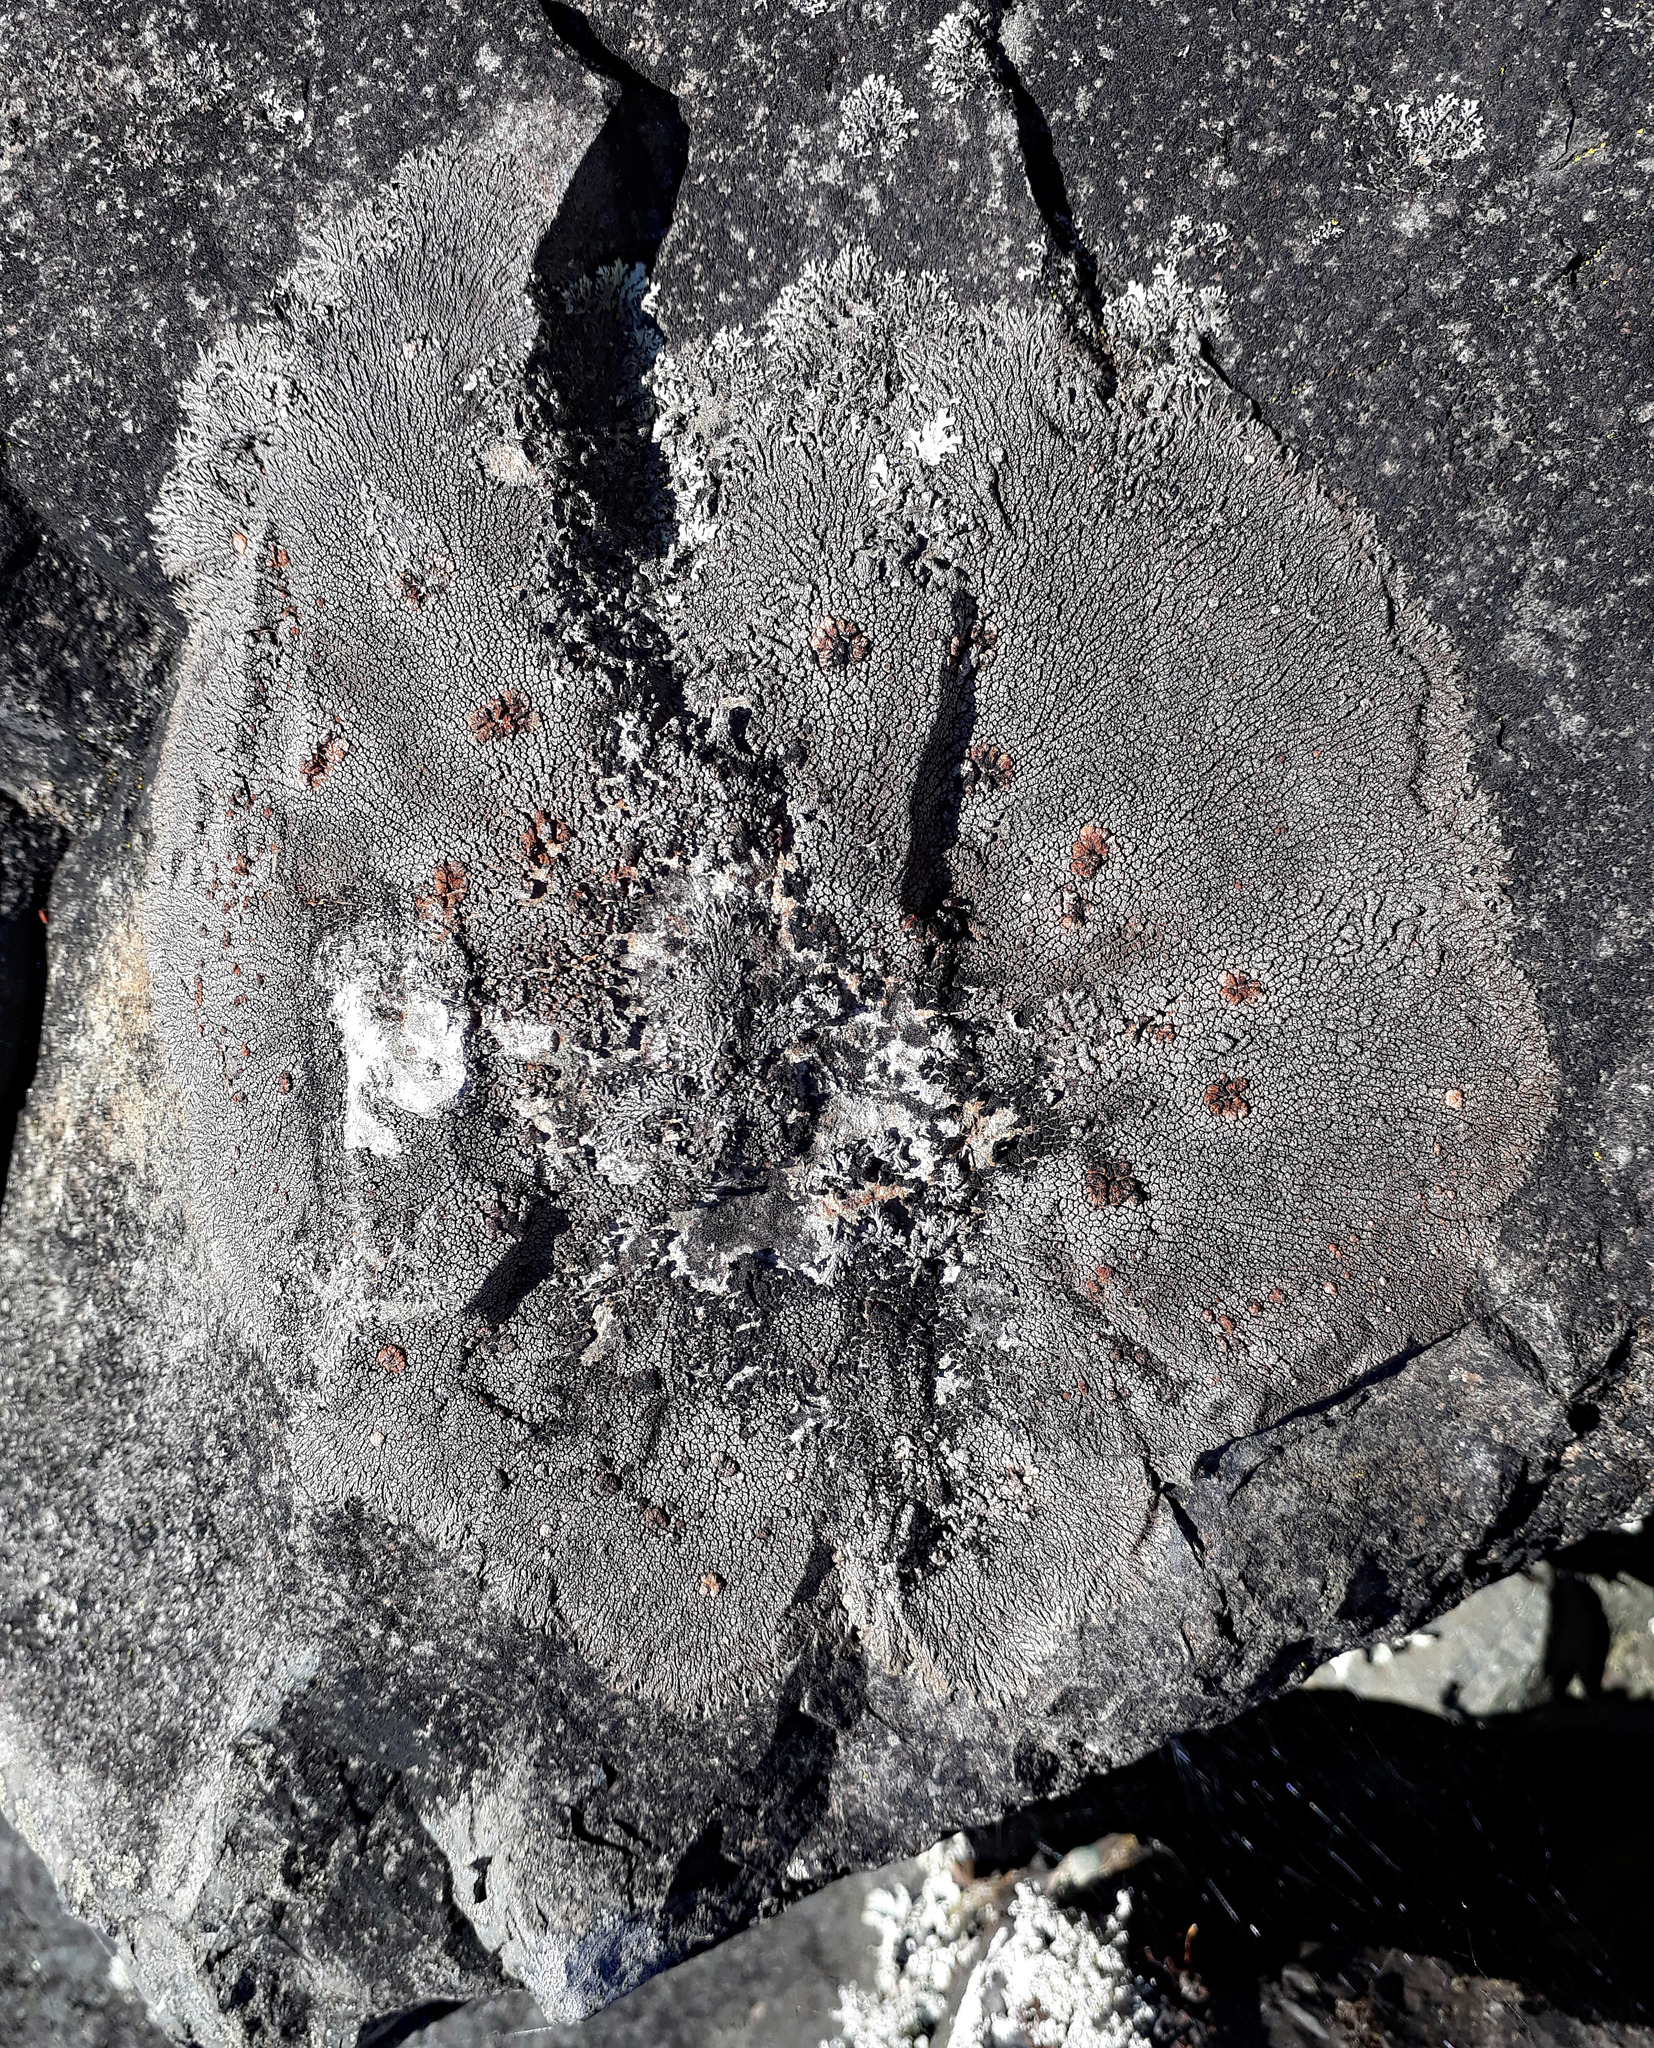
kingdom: Fungi
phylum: Ascomycota
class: Lecanoromycetes
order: Baeomycetales
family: Trapeliaceae
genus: Placopsis
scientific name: Placopsis perrugosa
